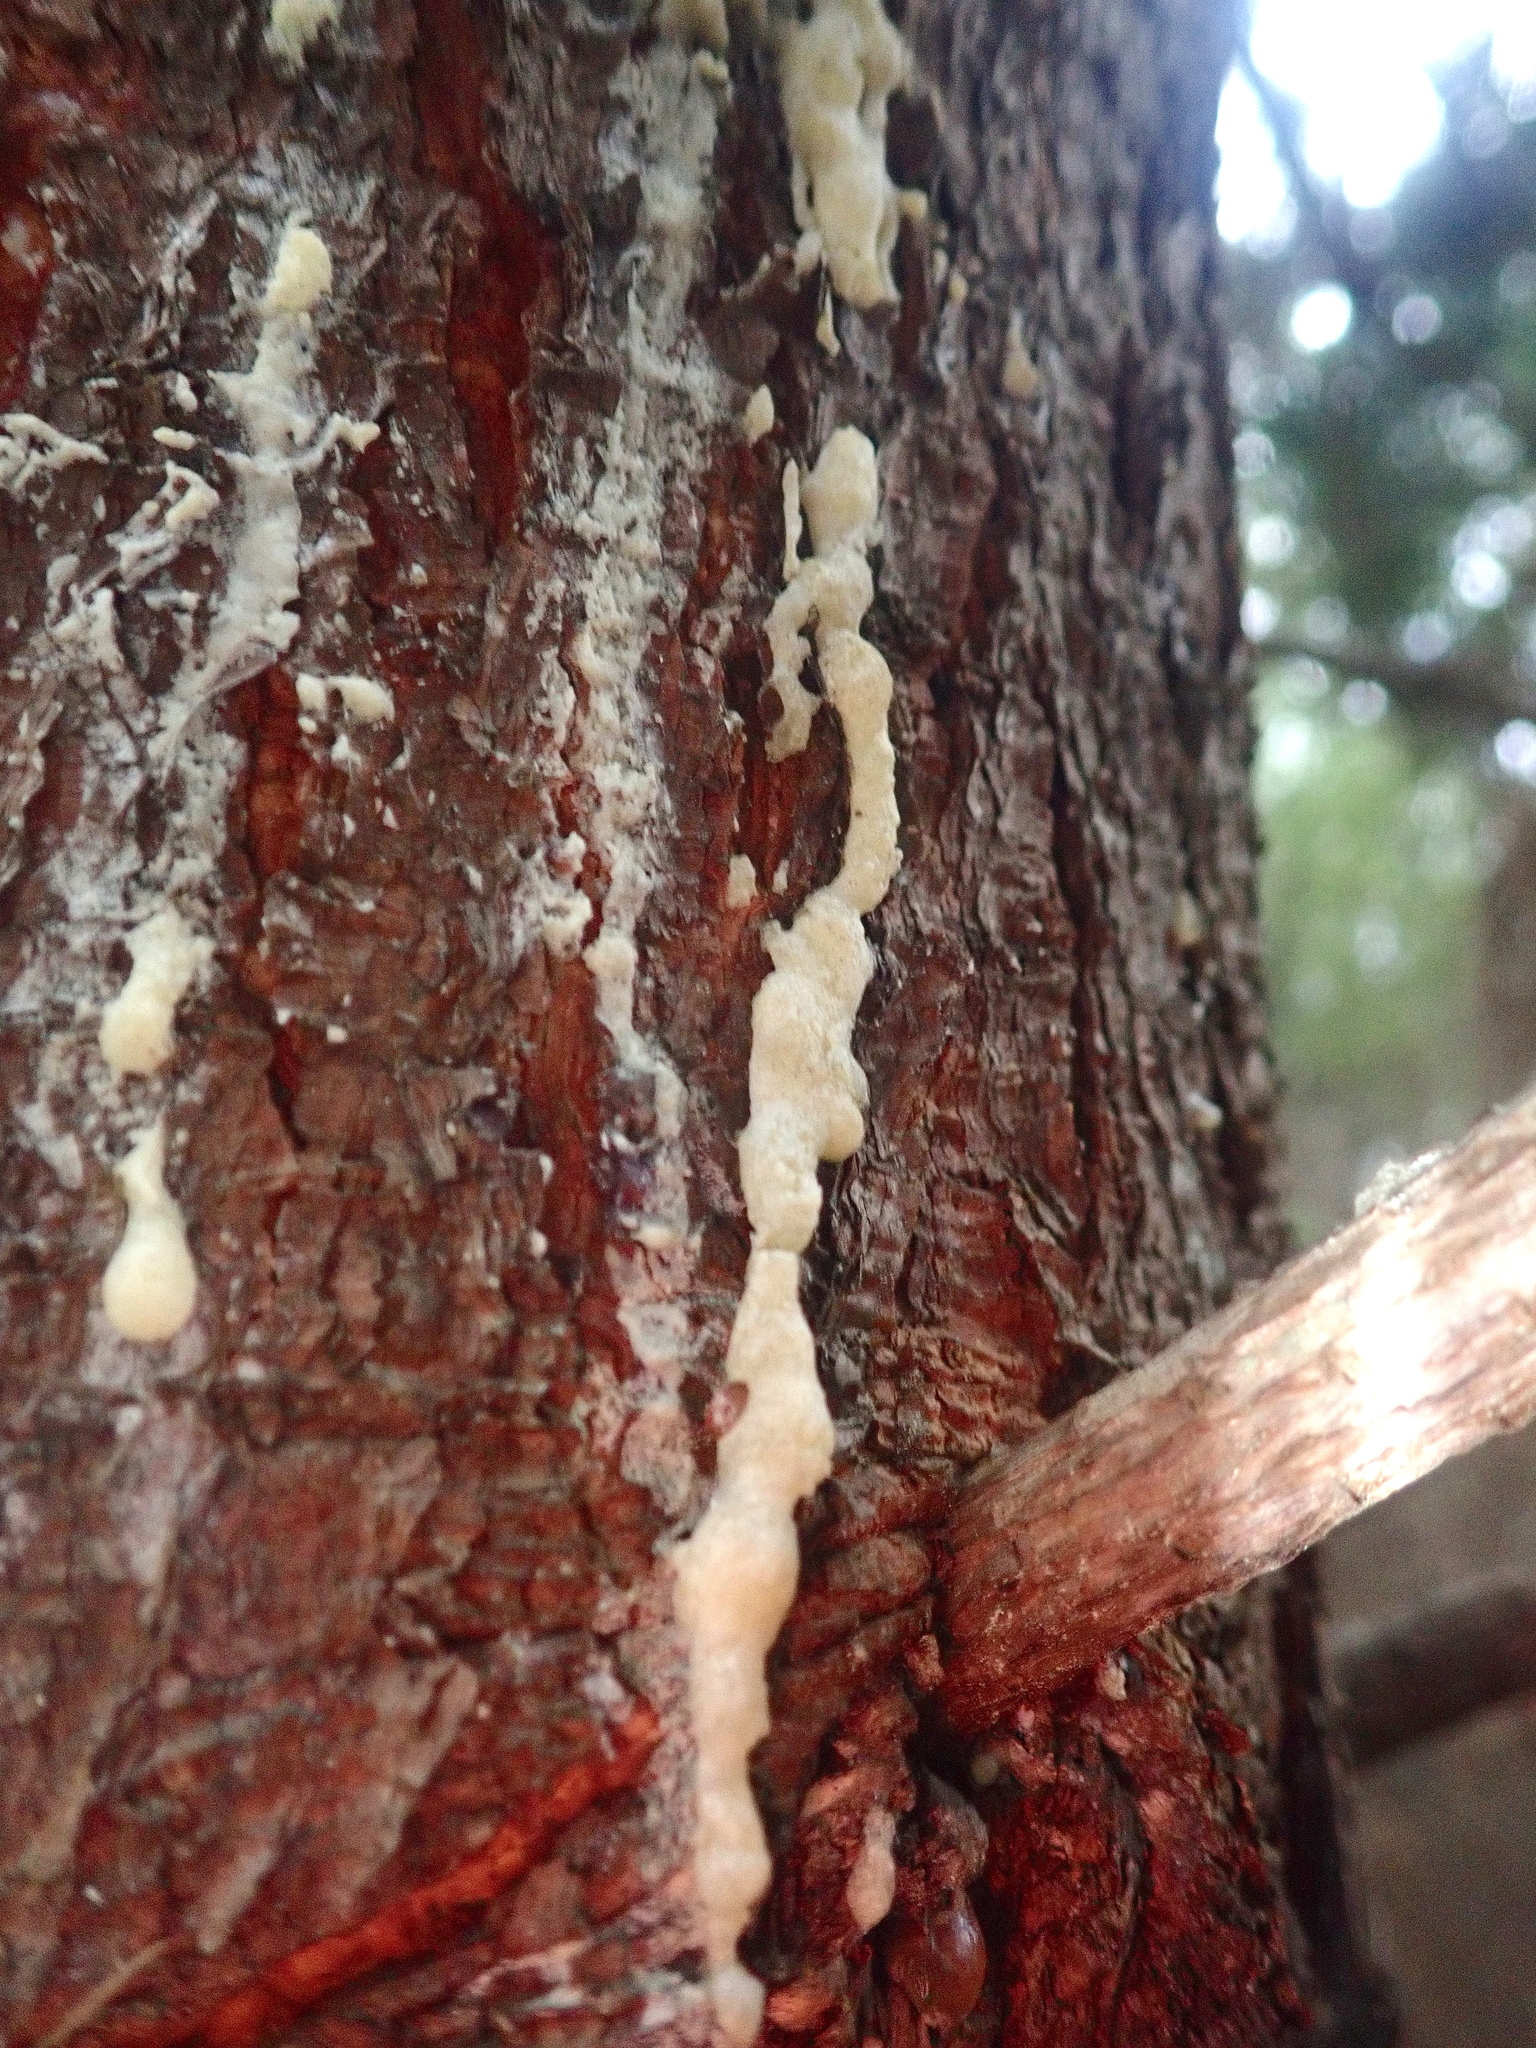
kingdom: Plantae
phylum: Tracheophyta
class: Pinopsida
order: Pinales
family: Pinaceae
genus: Pinus
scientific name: Pinus pinaster
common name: Maritime pine
